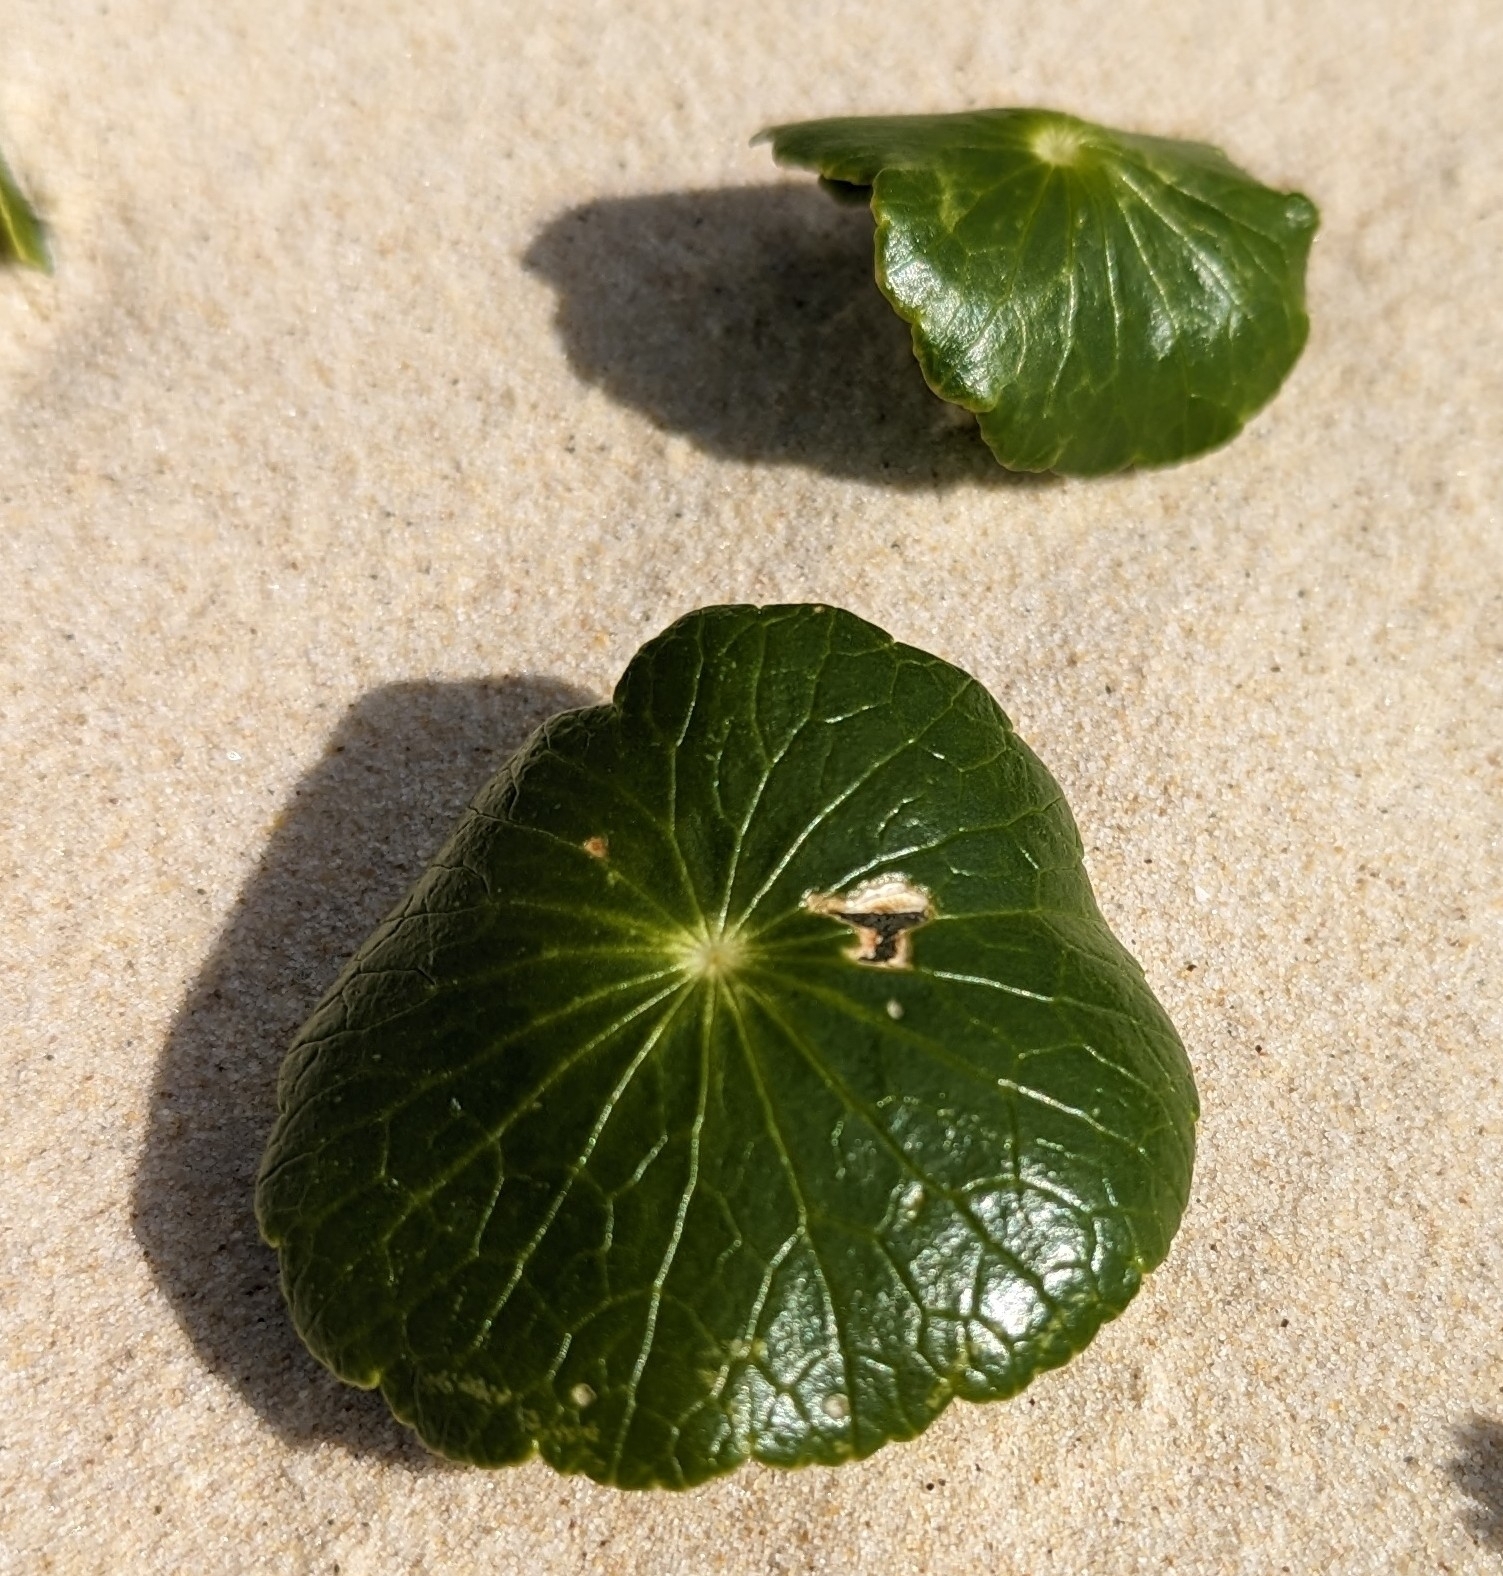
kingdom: Plantae
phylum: Tracheophyta
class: Magnoliopsida
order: Apiales
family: Araliaceae
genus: Hydrocotyle
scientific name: Hydrocotyle bonariensis
